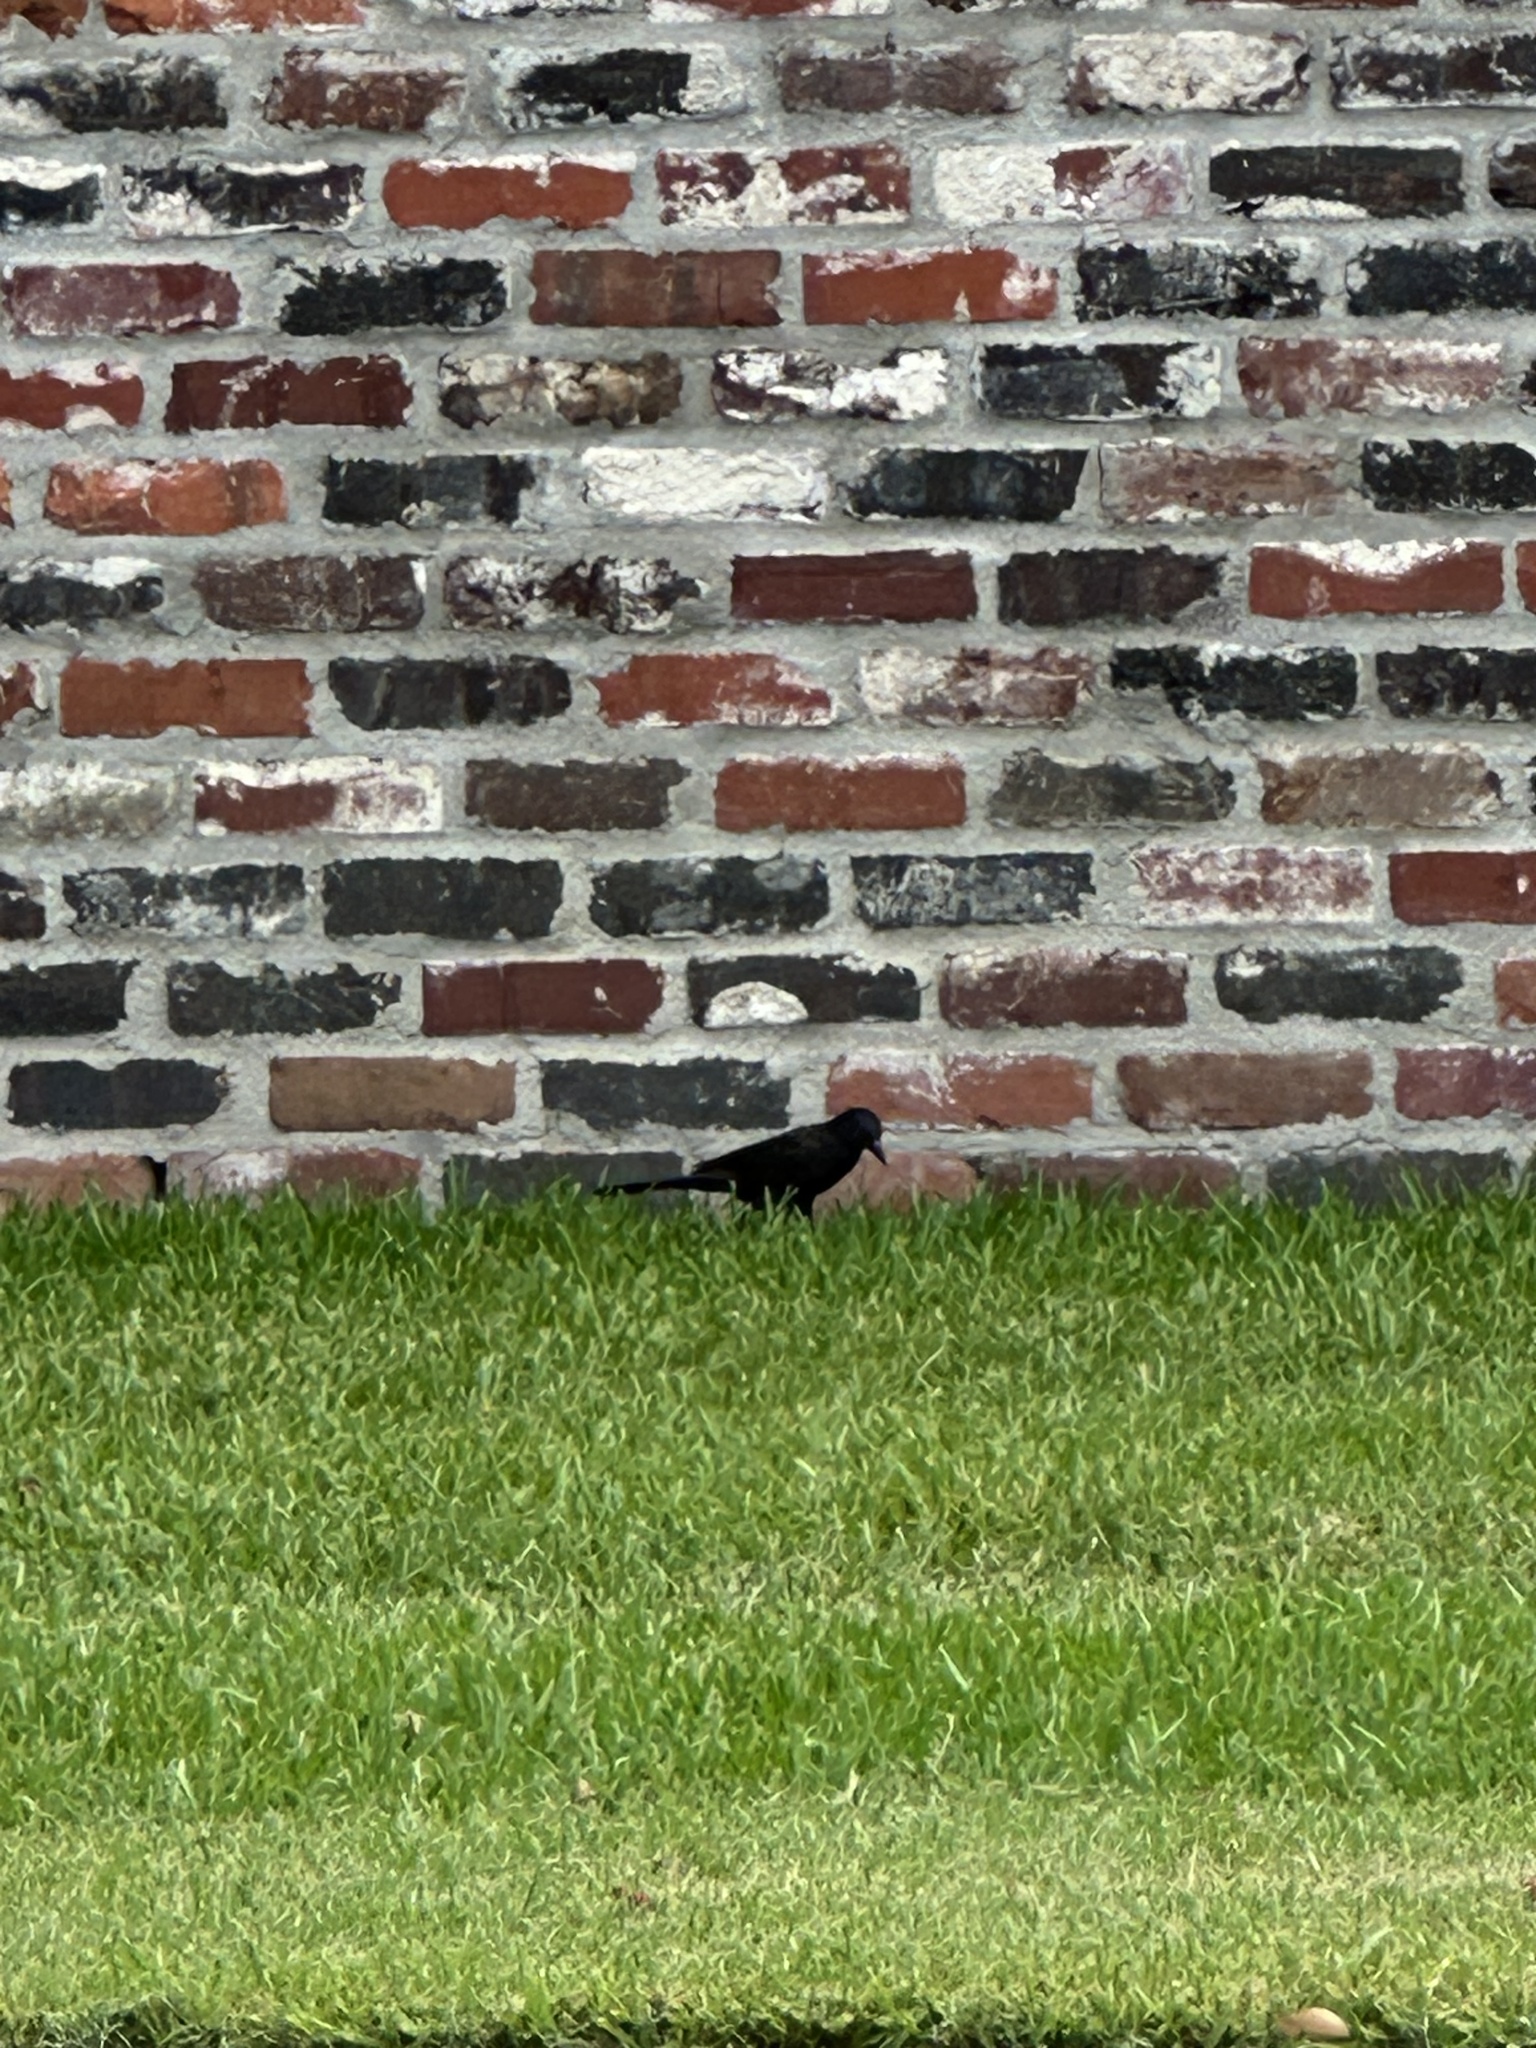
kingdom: Animalia
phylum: Chordata
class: Aves
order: Passeriformes
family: Icteridae
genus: Quiscalus
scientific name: Quiscalus quiscula
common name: Common grackle
